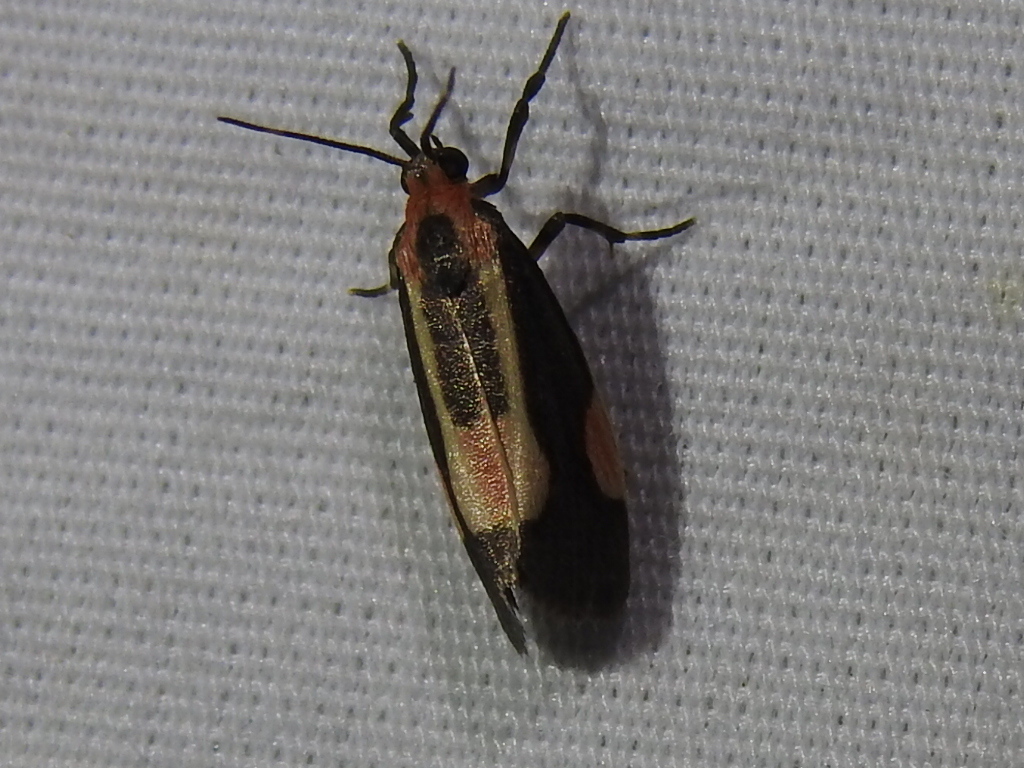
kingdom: Animalia
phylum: Arthropoda
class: Insecta
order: Lepidoptera
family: Erebidae
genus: Cisthene
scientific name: Cisthene packardii
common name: Packard's lichen moth
